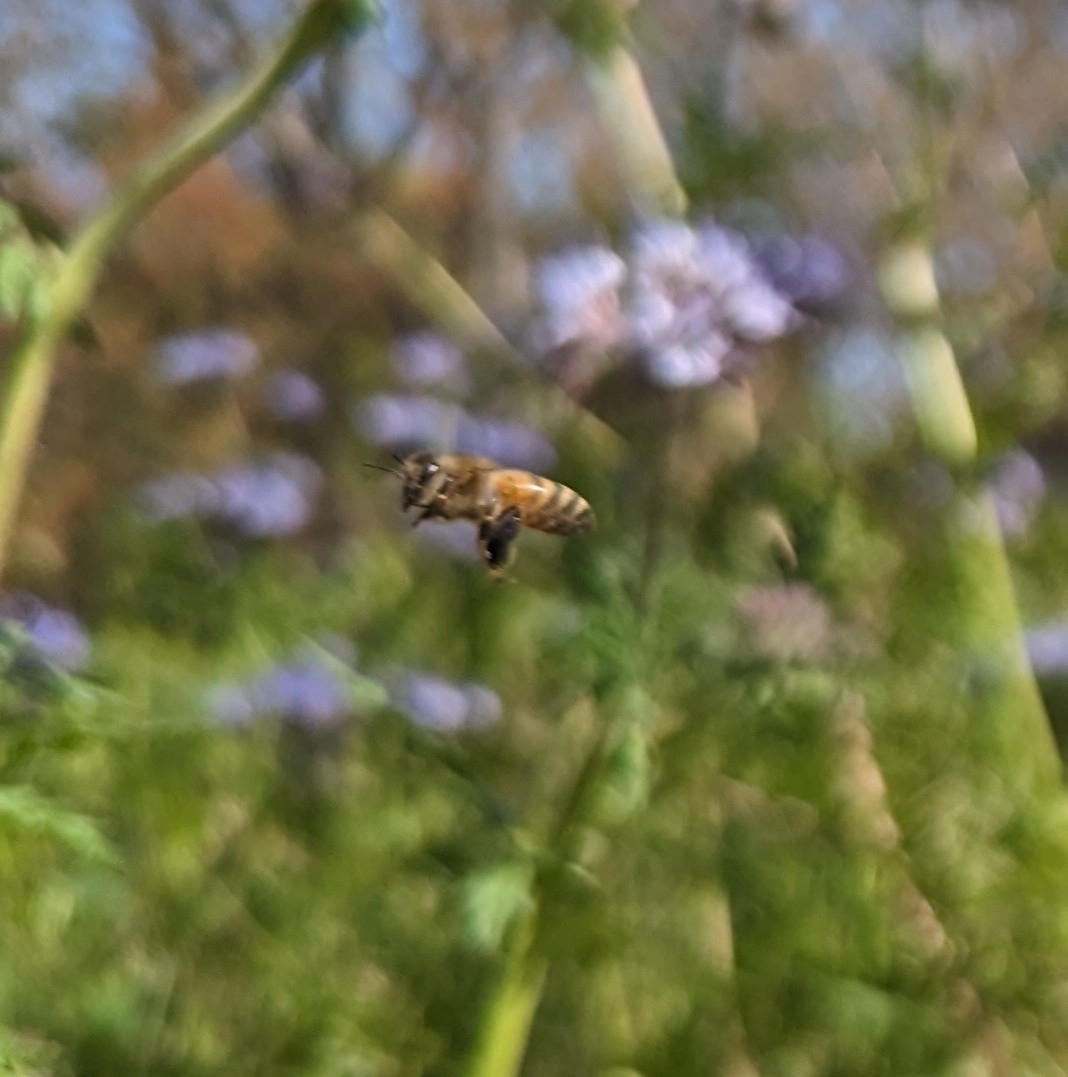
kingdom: Animalia
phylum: Arthropoda
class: Insecta
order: Hymenoptera
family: Apidae
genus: Apis
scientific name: Apis mellifera
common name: Honey bee
